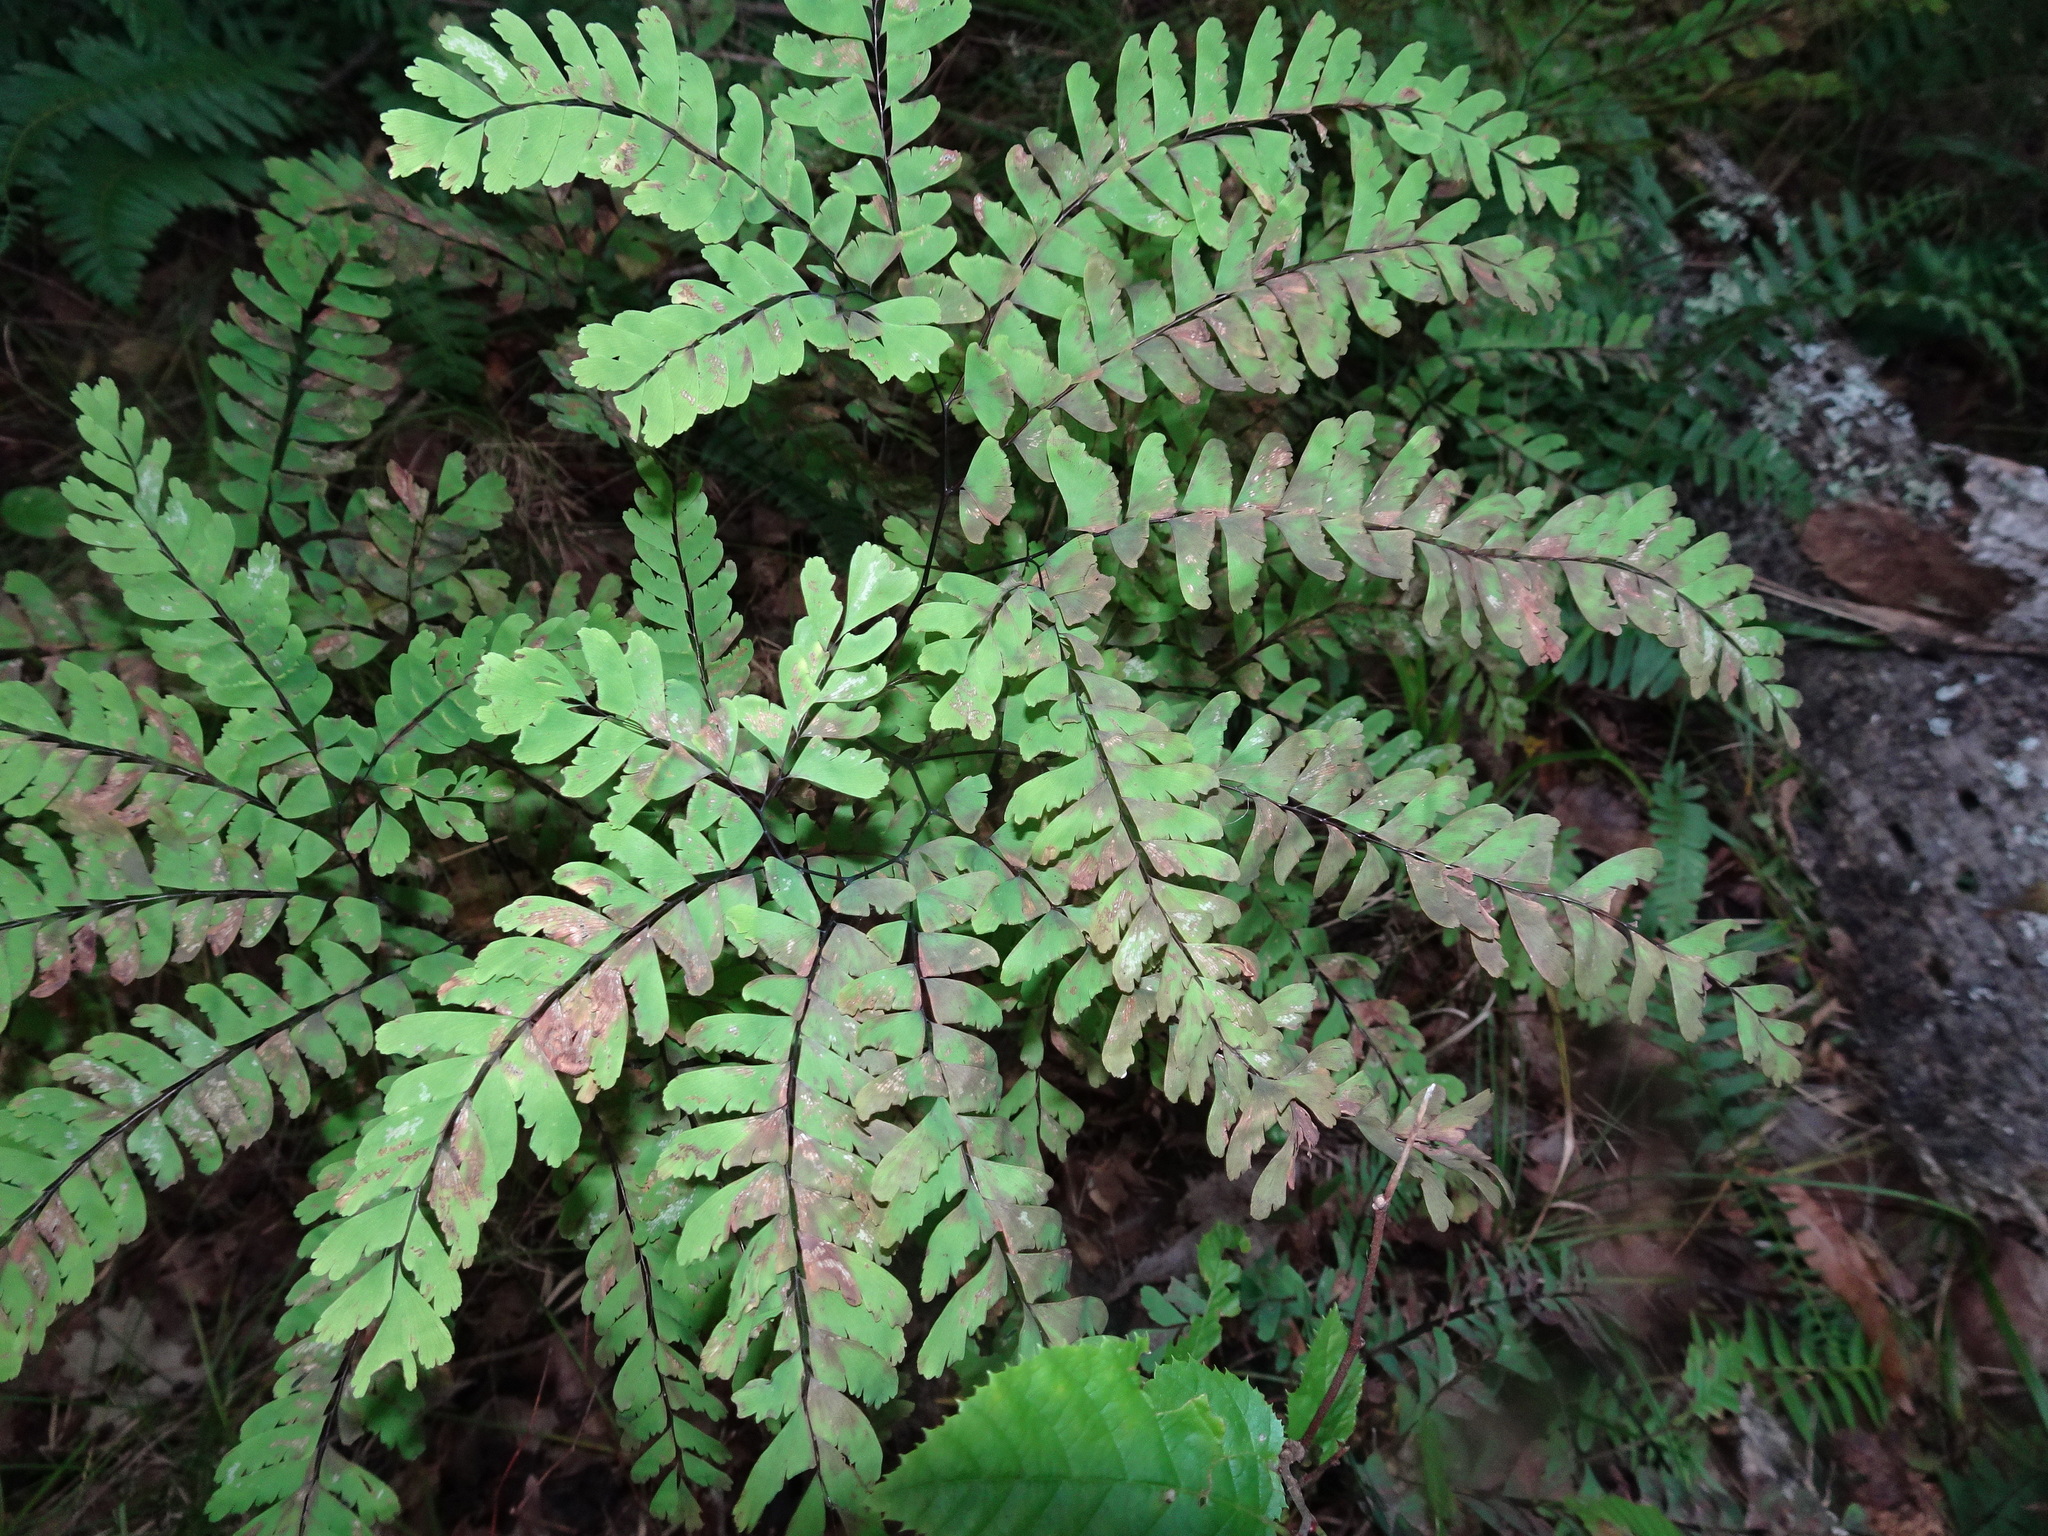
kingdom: Plantae
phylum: Tracheophyta
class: Polypodiopsida
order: Polypodiales
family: Pteridaceae
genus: Adiantum
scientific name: Adiantum pedatum
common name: Five-finger fern
